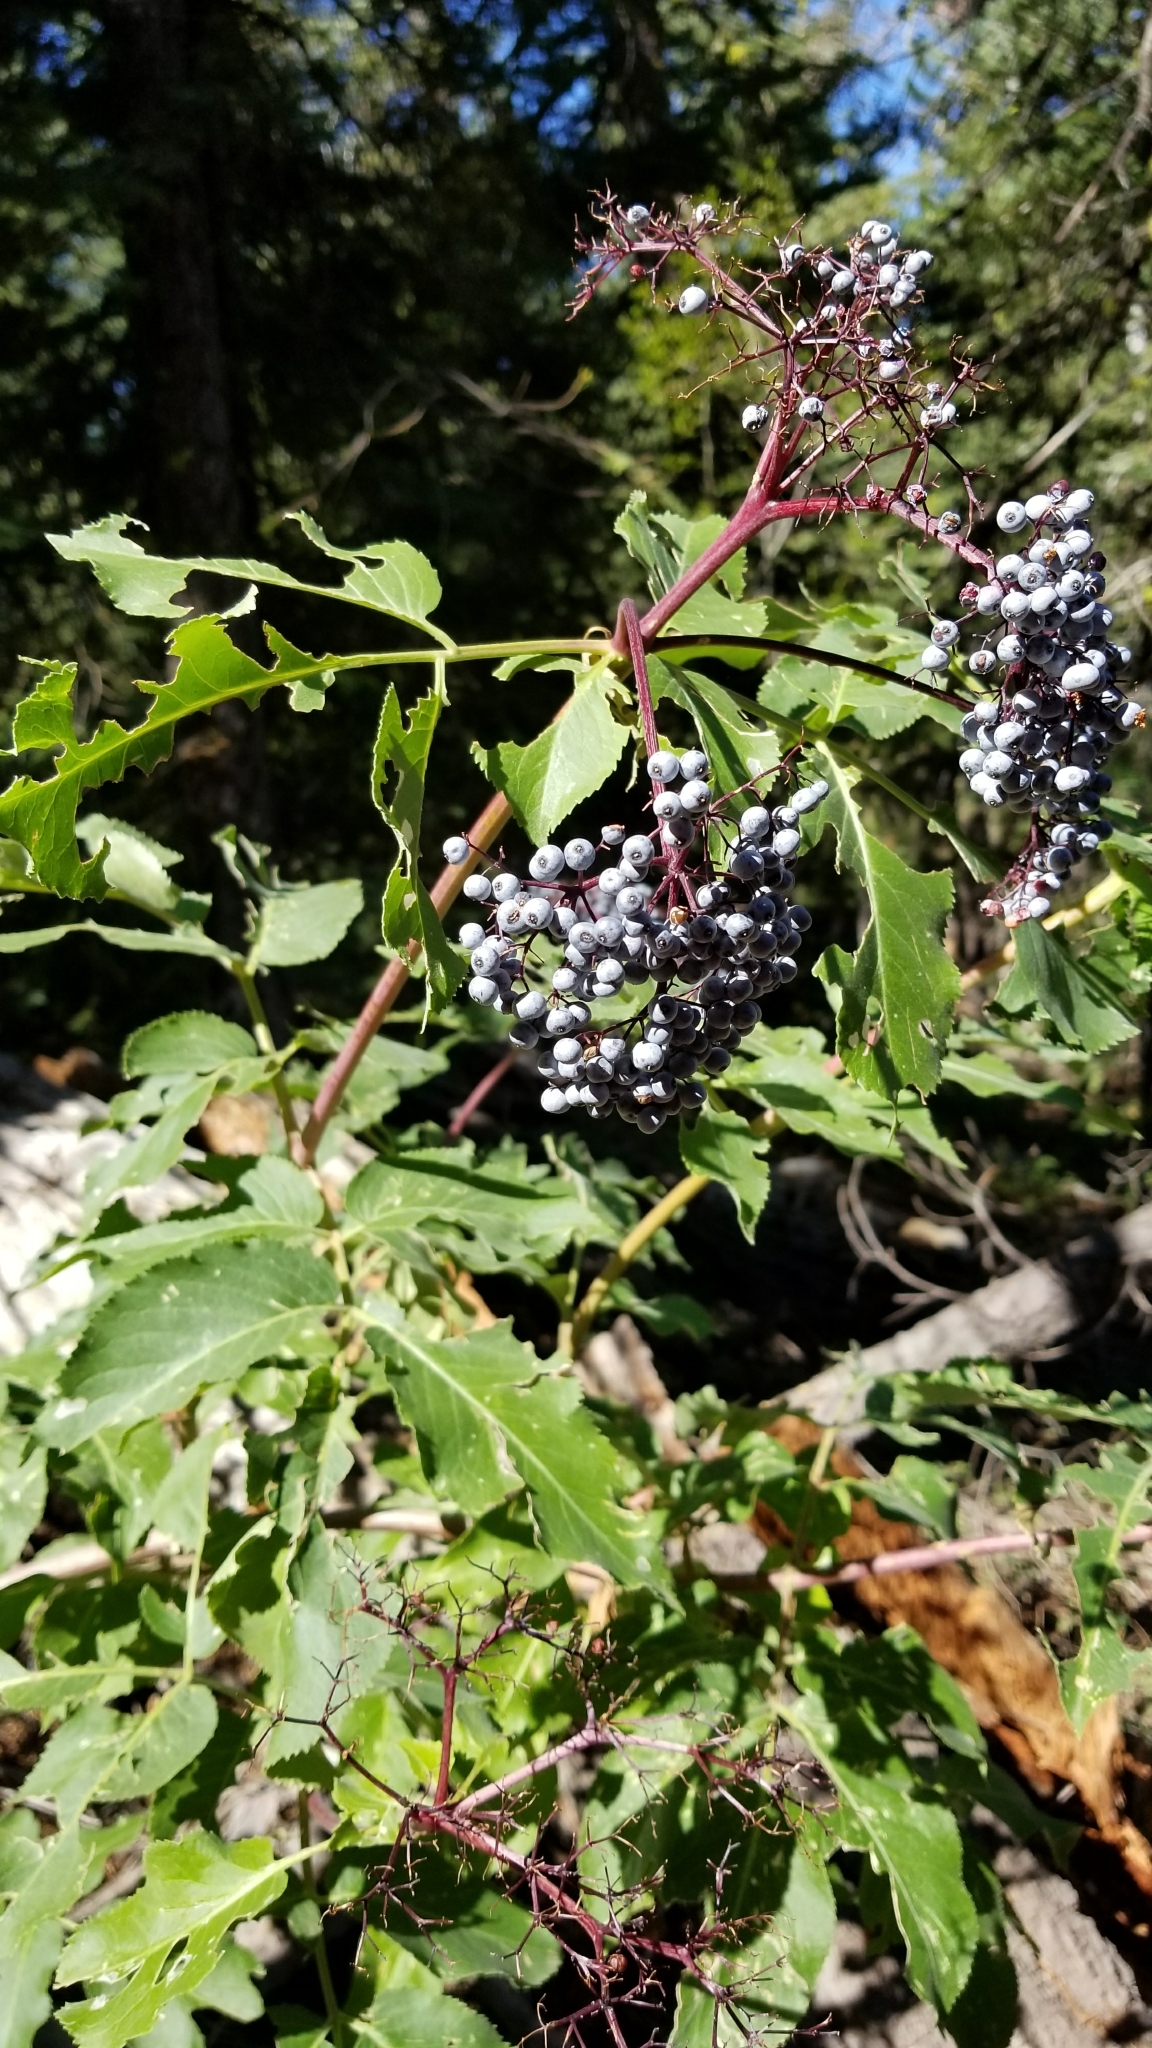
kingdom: Plantae
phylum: Tracheophyta
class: Magnoliopsida
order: Dipsacales
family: Viburnaceae
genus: Sambucus
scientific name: Sambucus cerulea
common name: Blue elder
